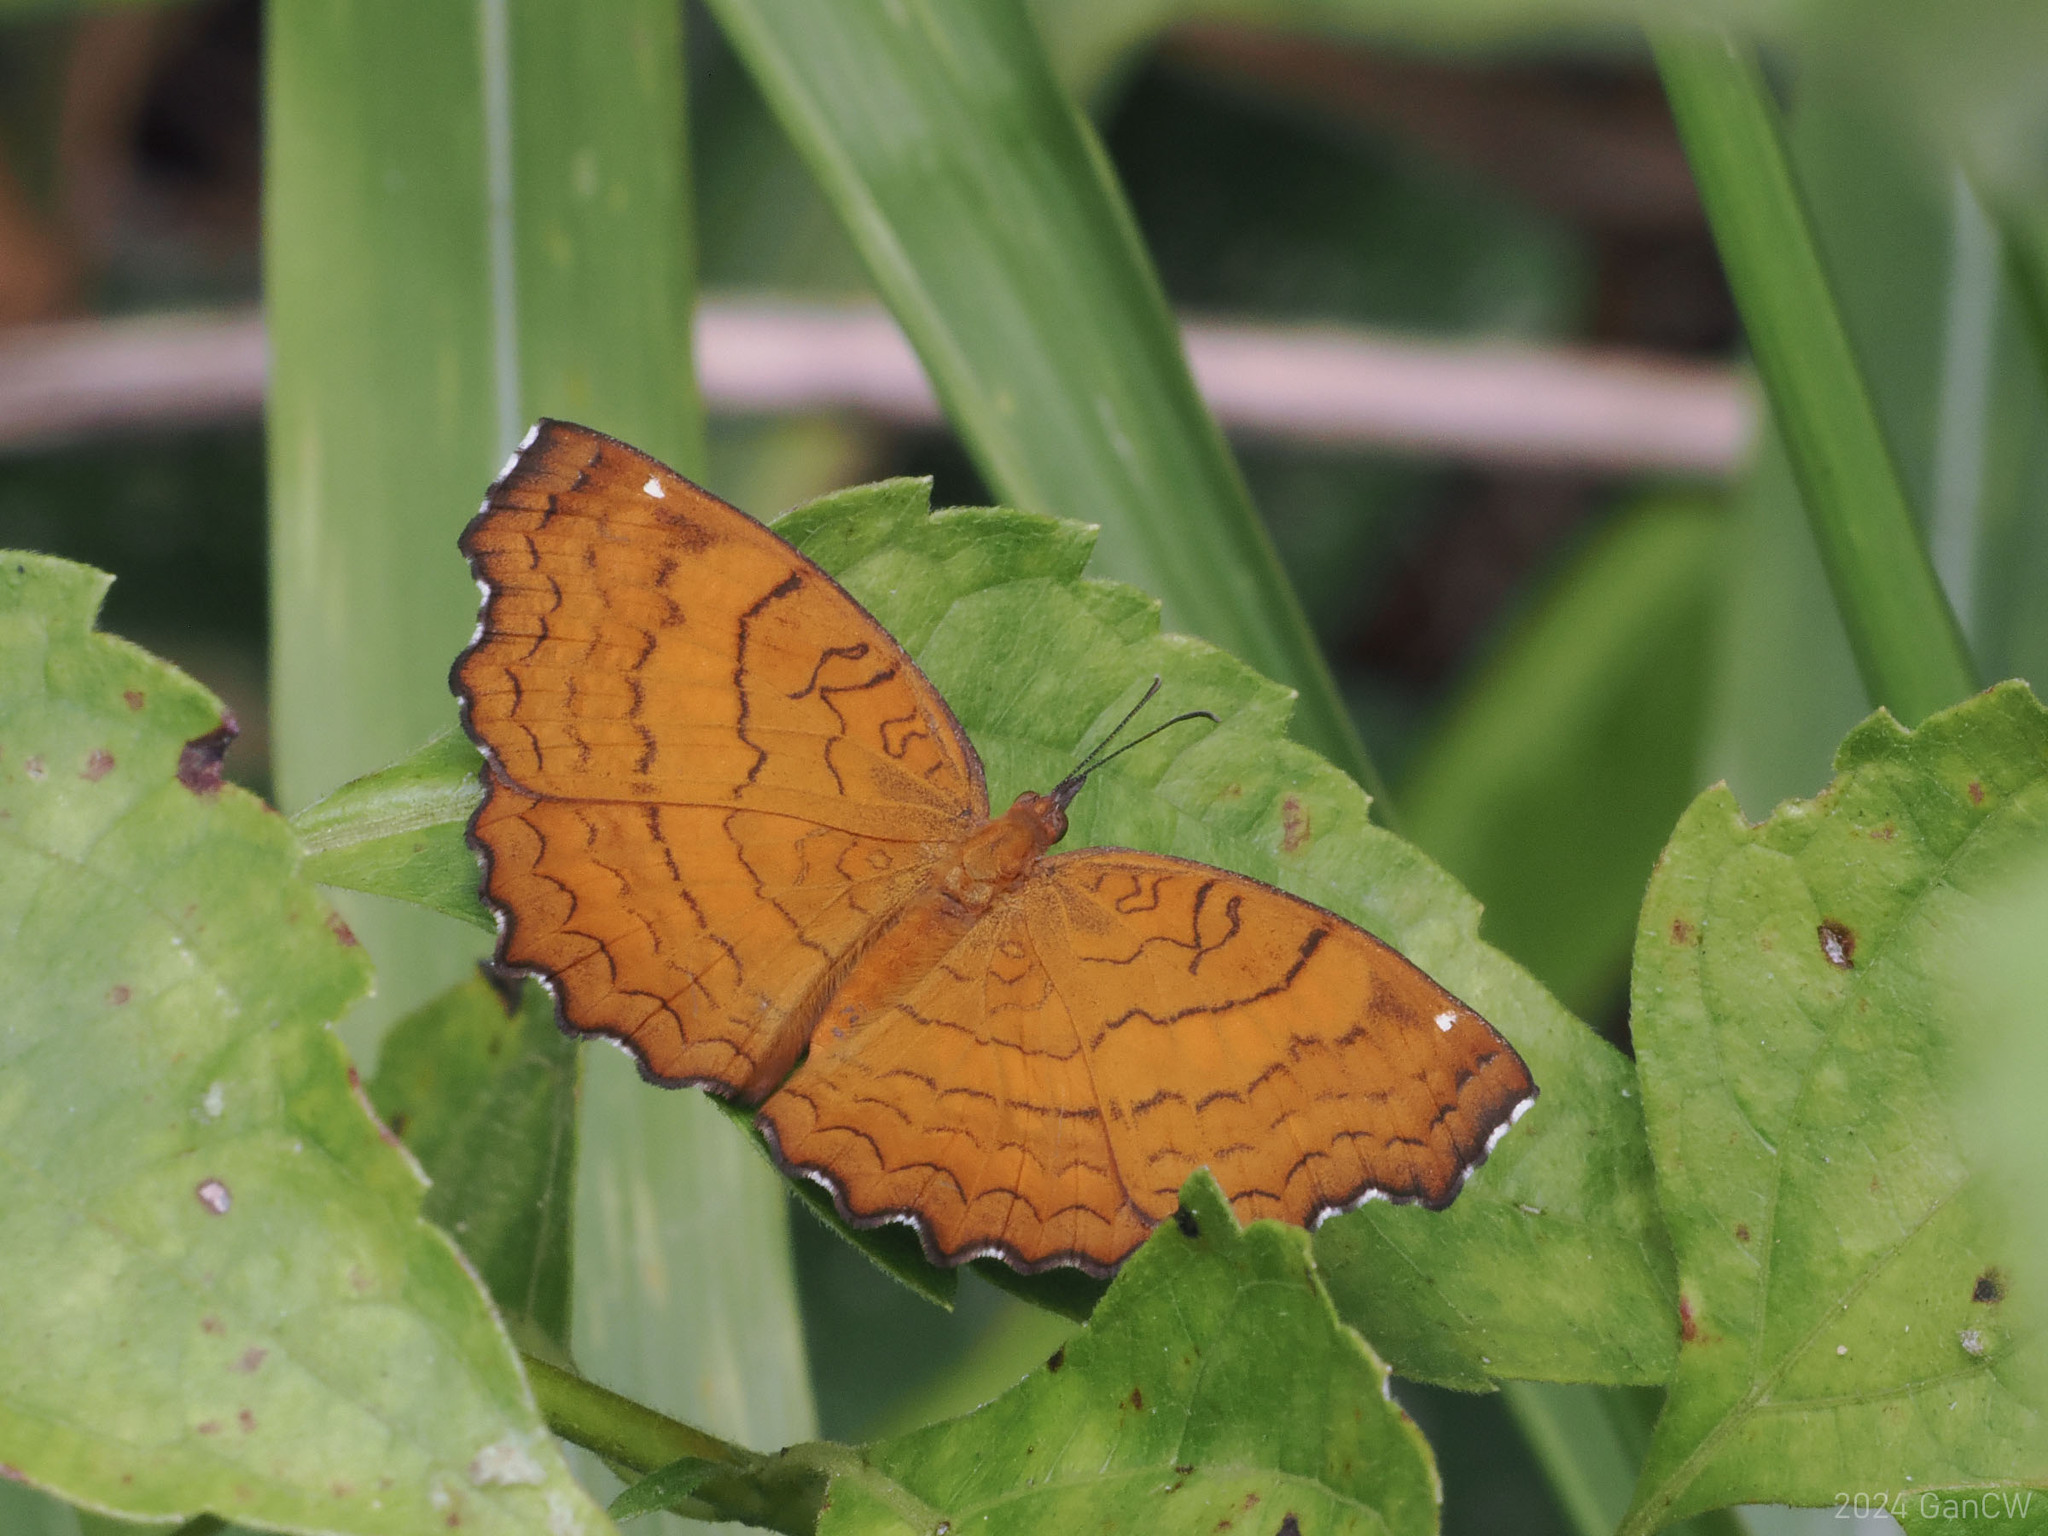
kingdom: Animalia
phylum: Arthropoda
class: Insecta
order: Lepidoptera
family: Nymphalidae
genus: Ariadne
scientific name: Ariadne ariadne
